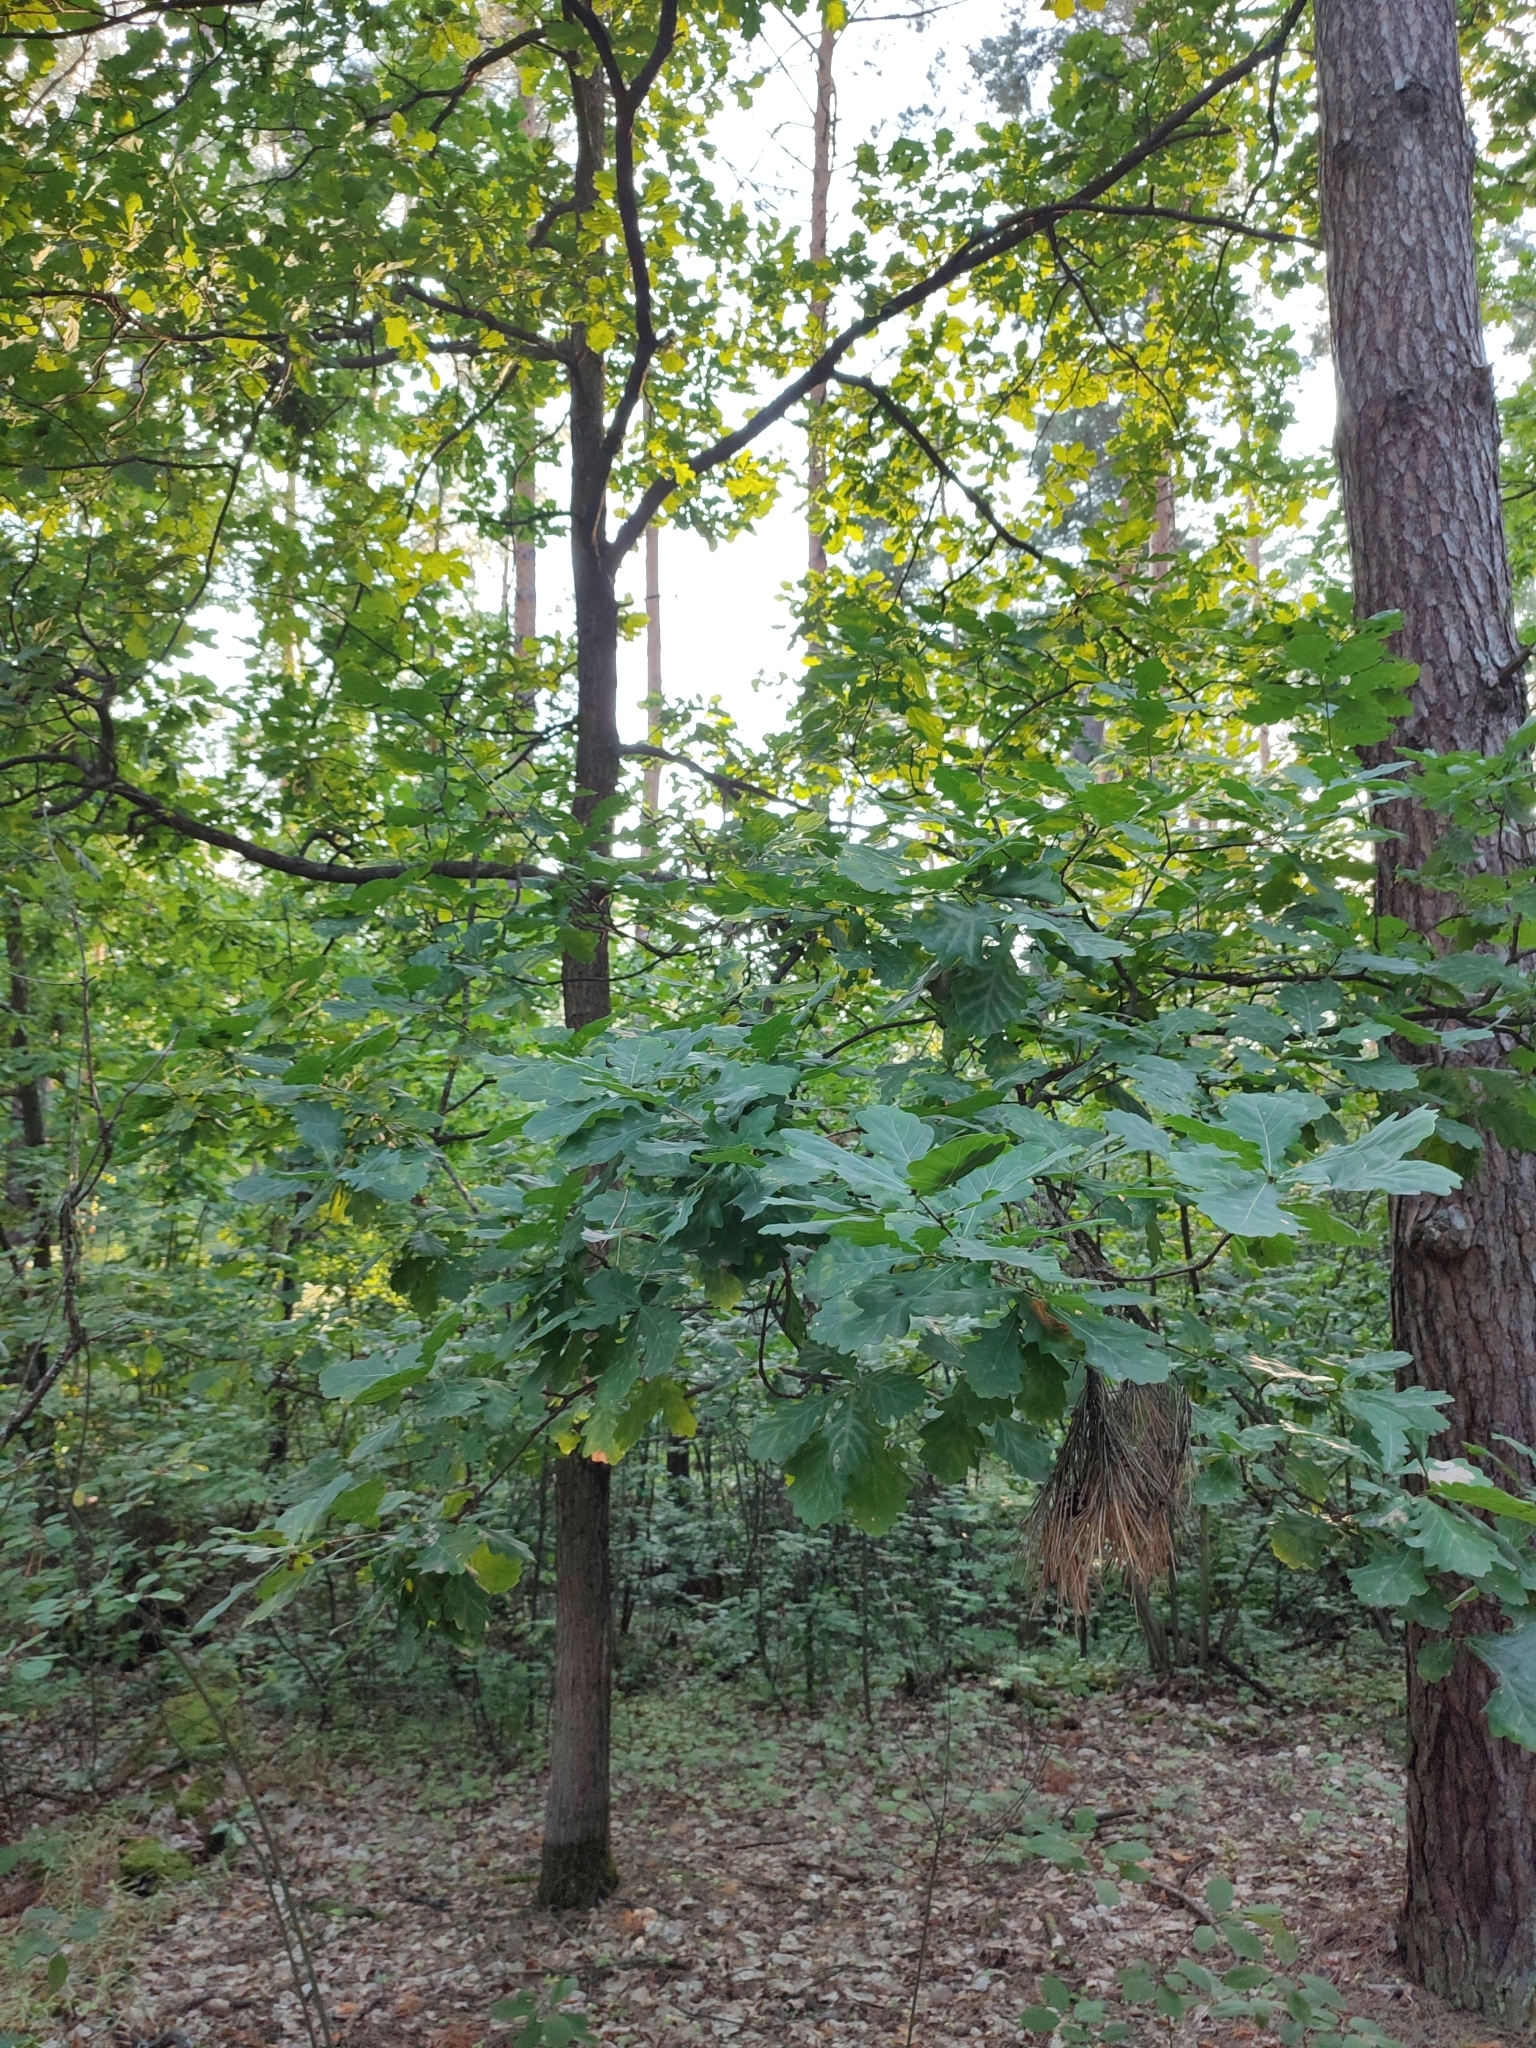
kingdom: Plantae
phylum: Tracheophyta
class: Magnoliopsida
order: Fagales
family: Fagaceae
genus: Quercus
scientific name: Quercus robur
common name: Pedunculate oak
